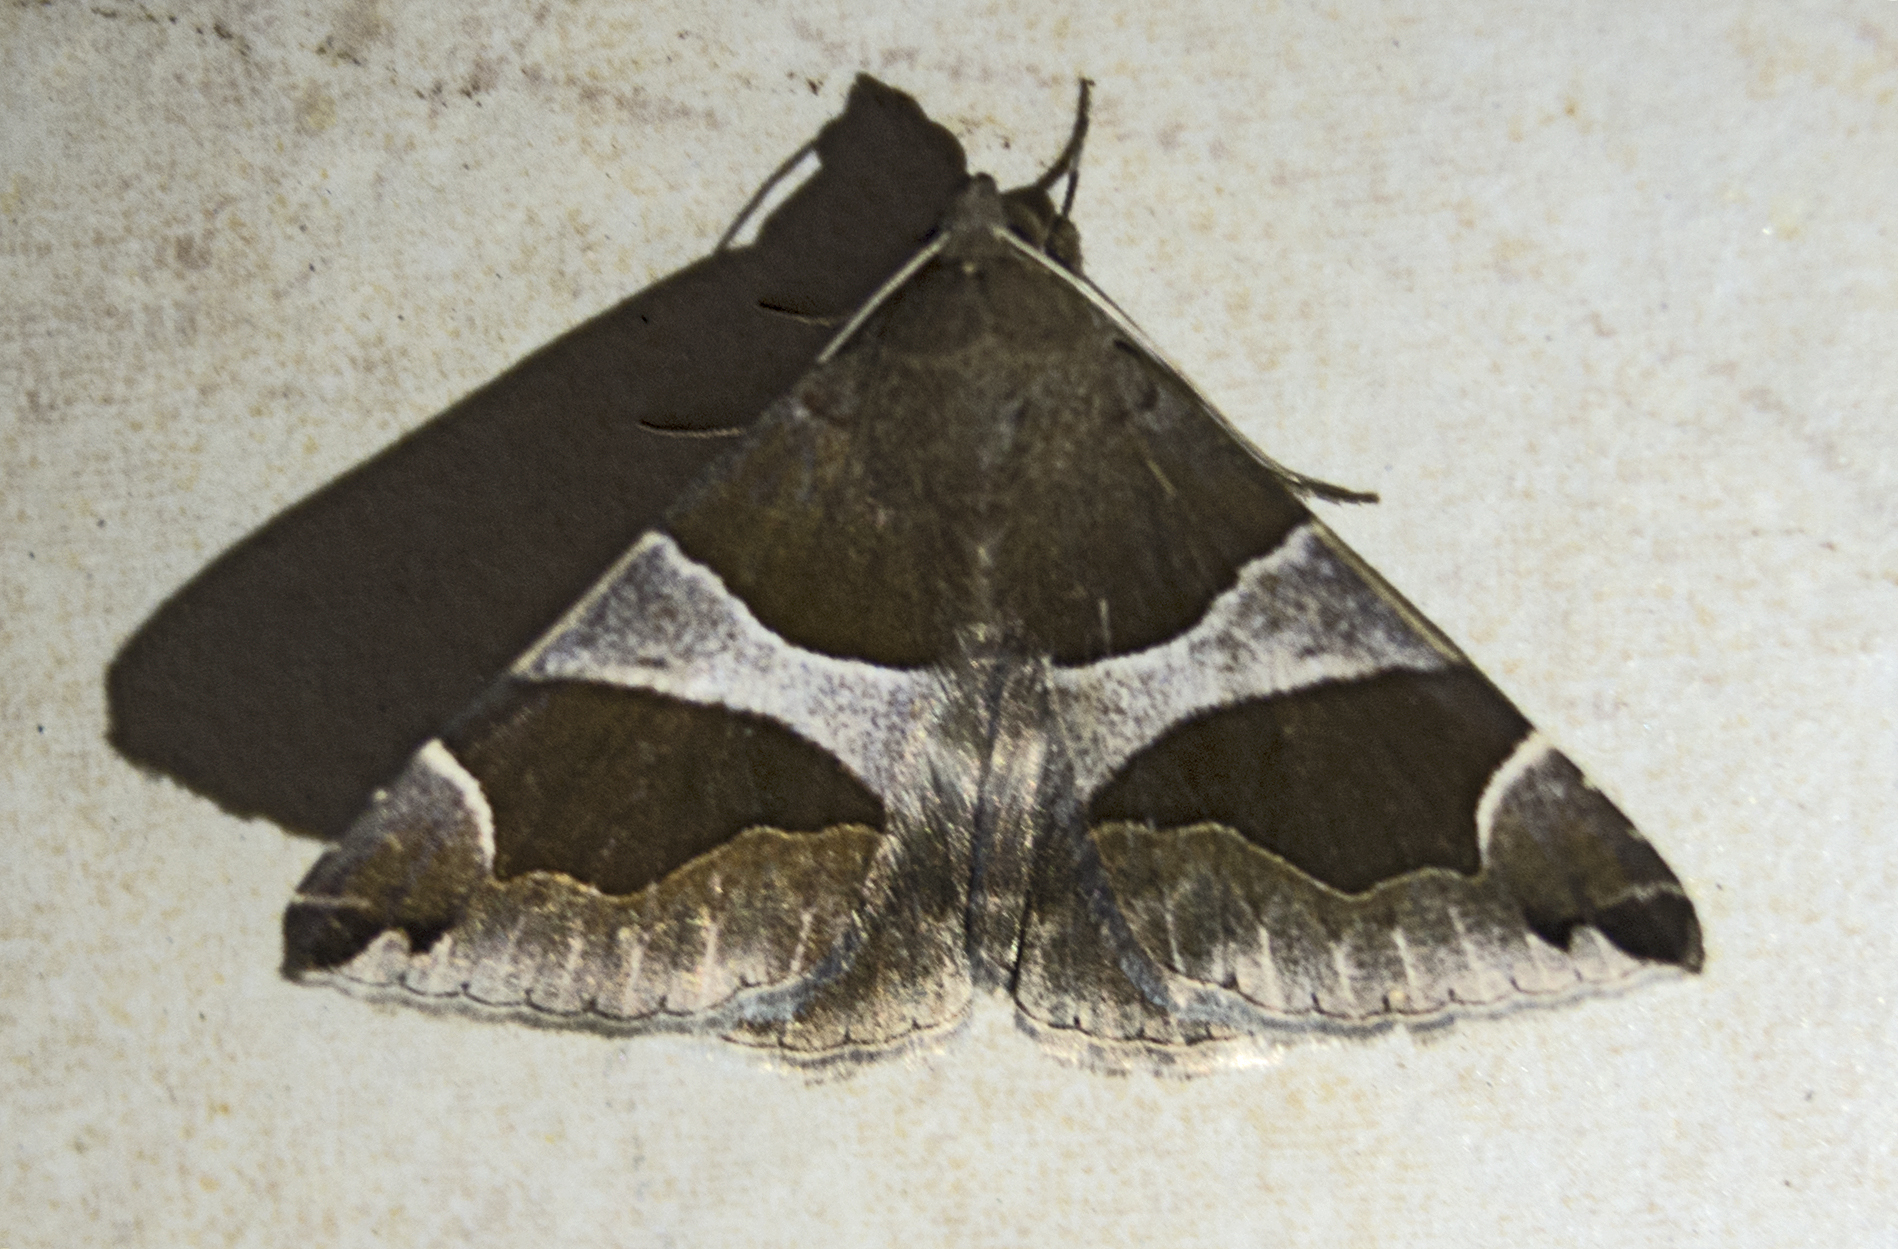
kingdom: Animalia
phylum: Arthropoda
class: Insecta
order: Lepidoptera
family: Erebidae
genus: Dysgonia
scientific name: Dysgonia algira
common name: Passenger
